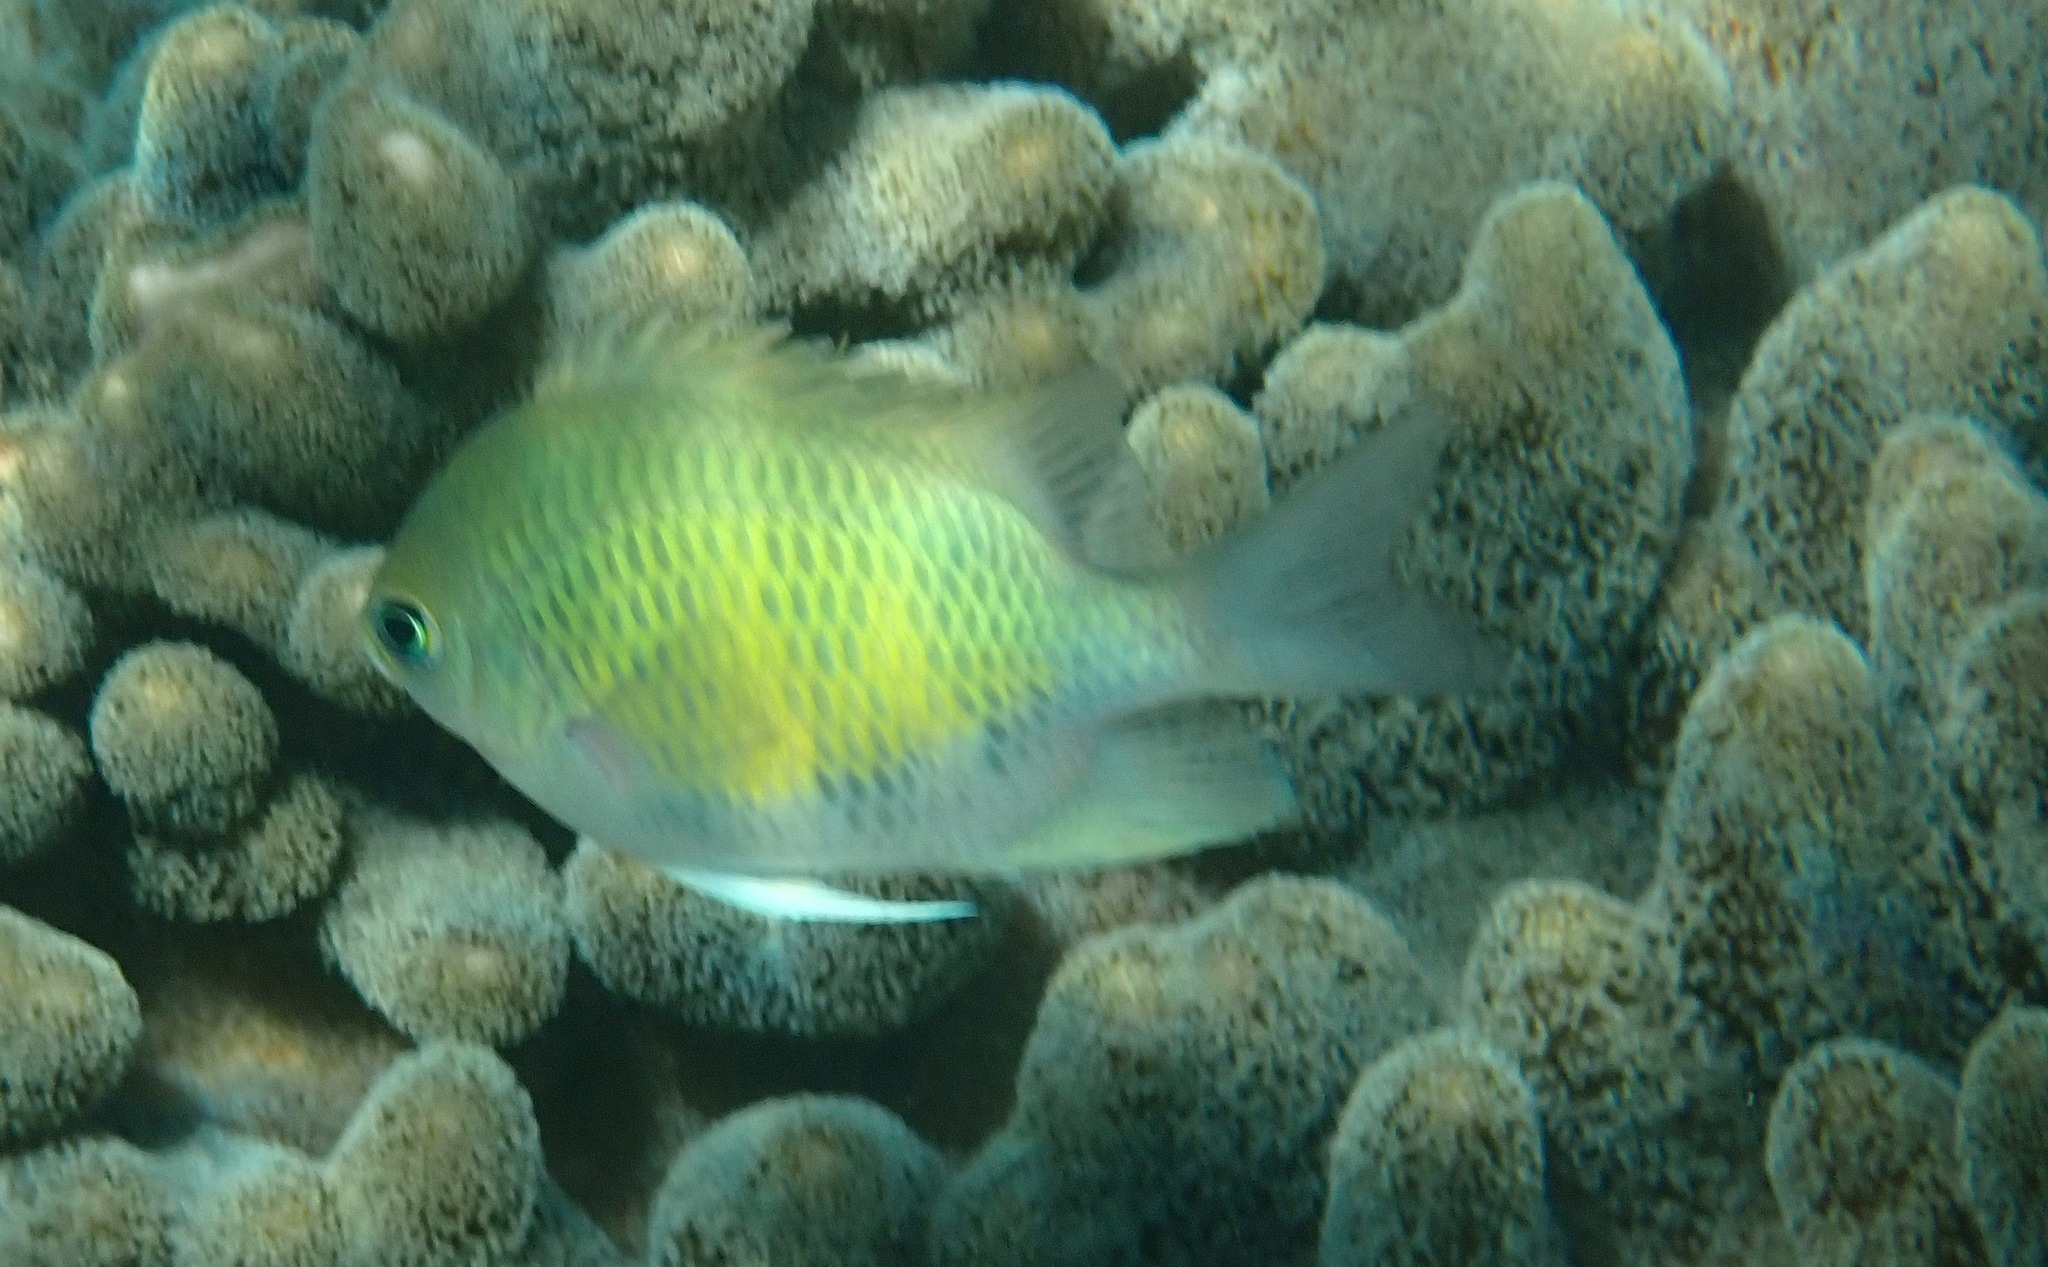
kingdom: Animalia
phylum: Chordata
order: Perciformes
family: Pomacentridae
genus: Amblyglyphidodon
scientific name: Amblyglyphidodon curacao
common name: Staghorn damsel
